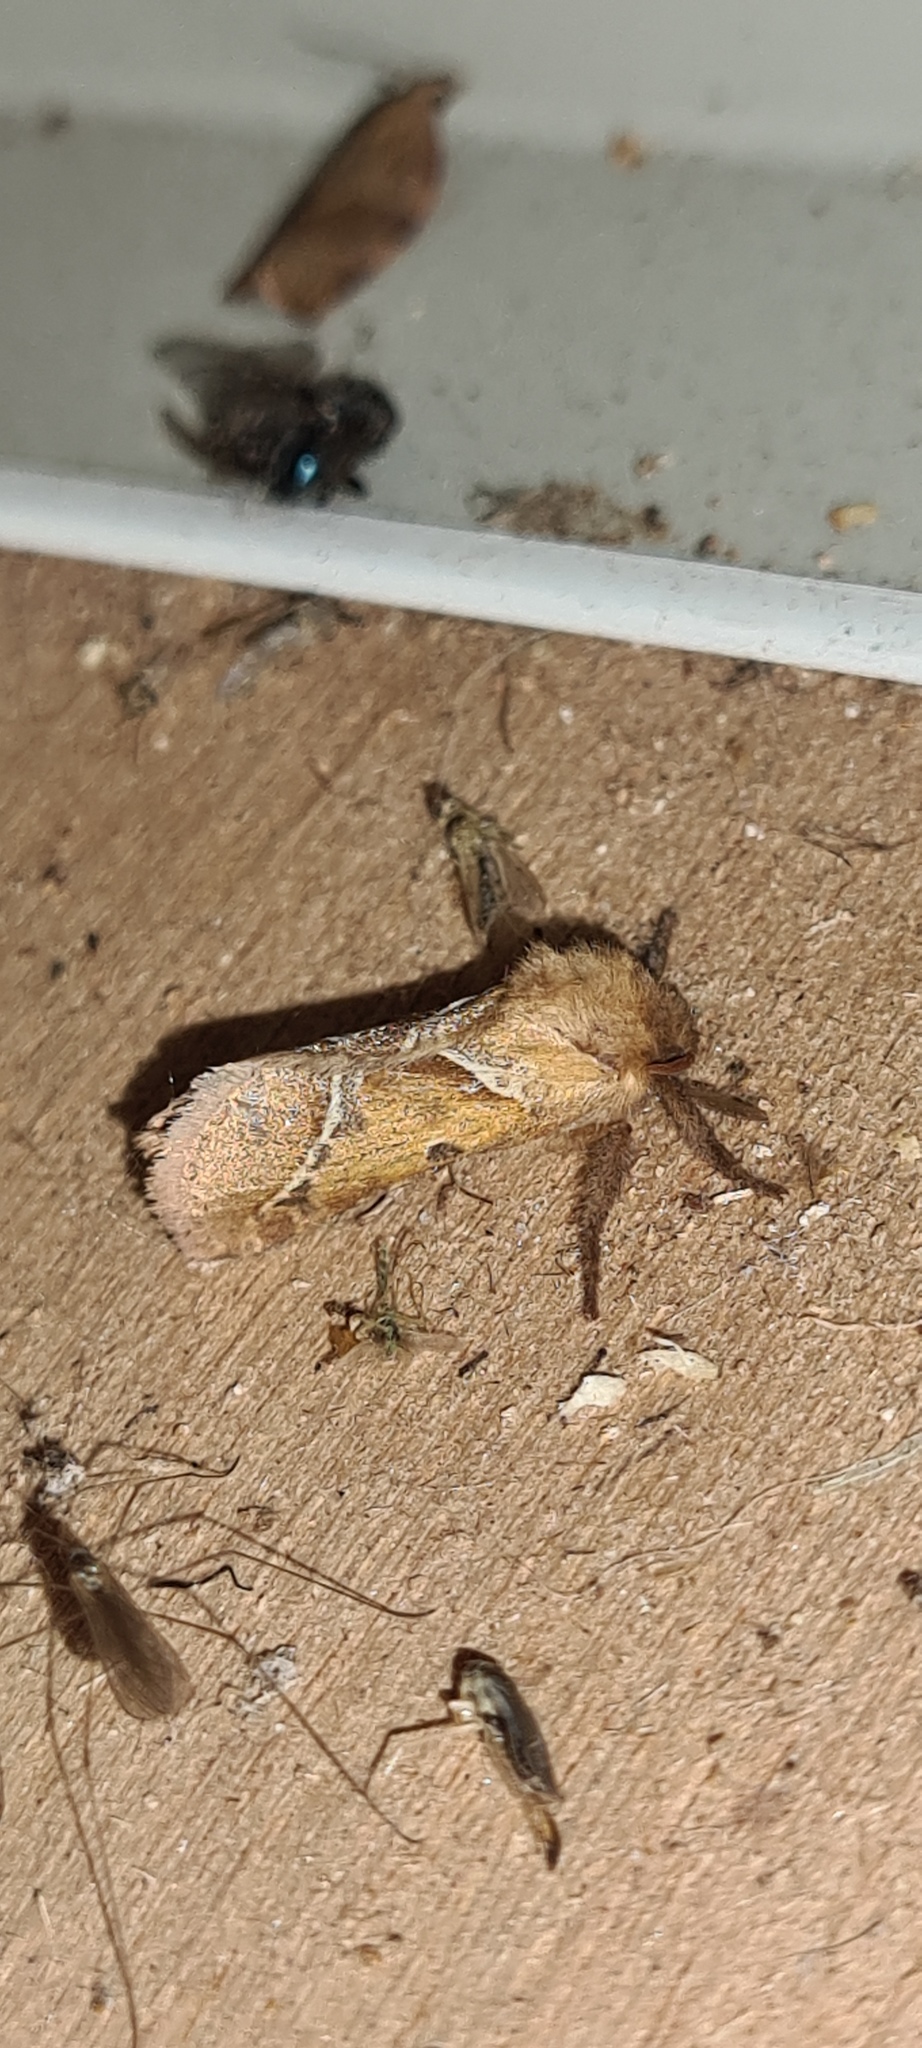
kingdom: Animalia
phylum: Arthropoda
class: Insecta
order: Lepidoptera
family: Hepialidae
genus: Triodia
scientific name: Triodia sylvina
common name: Orange swift
